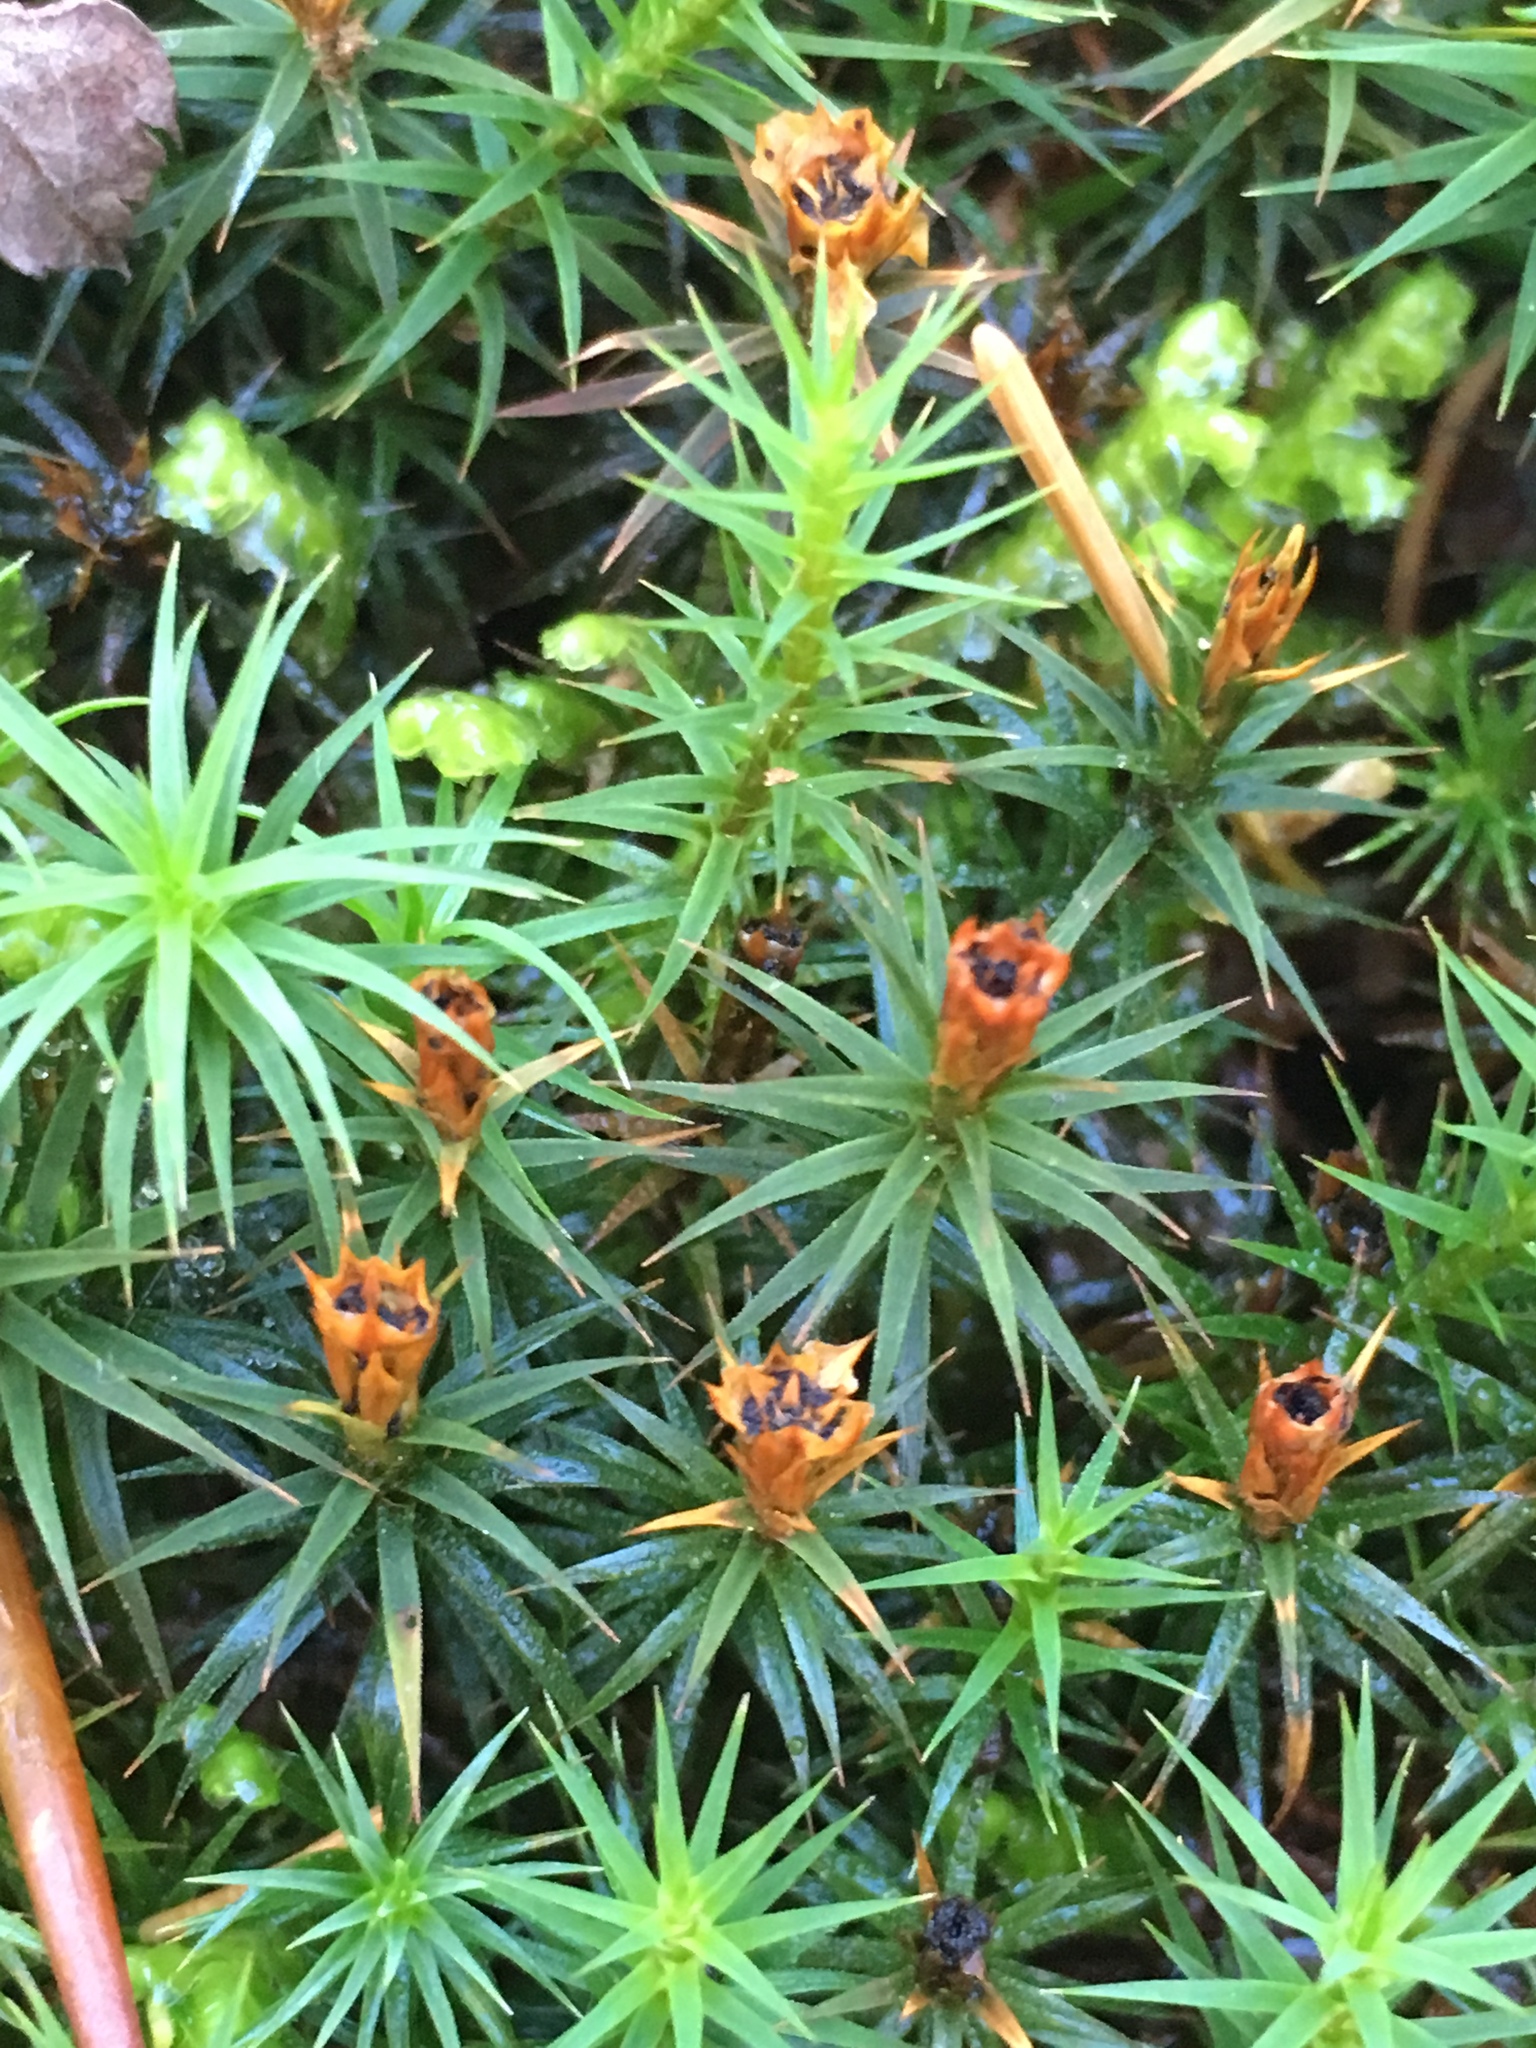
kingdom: Plantae
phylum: Bryophyta
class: Polytrichopsida
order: Polytrichales
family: Polytrichaceae
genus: Polytrichum
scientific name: Polytrichum formosum
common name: Bank haircap moss
